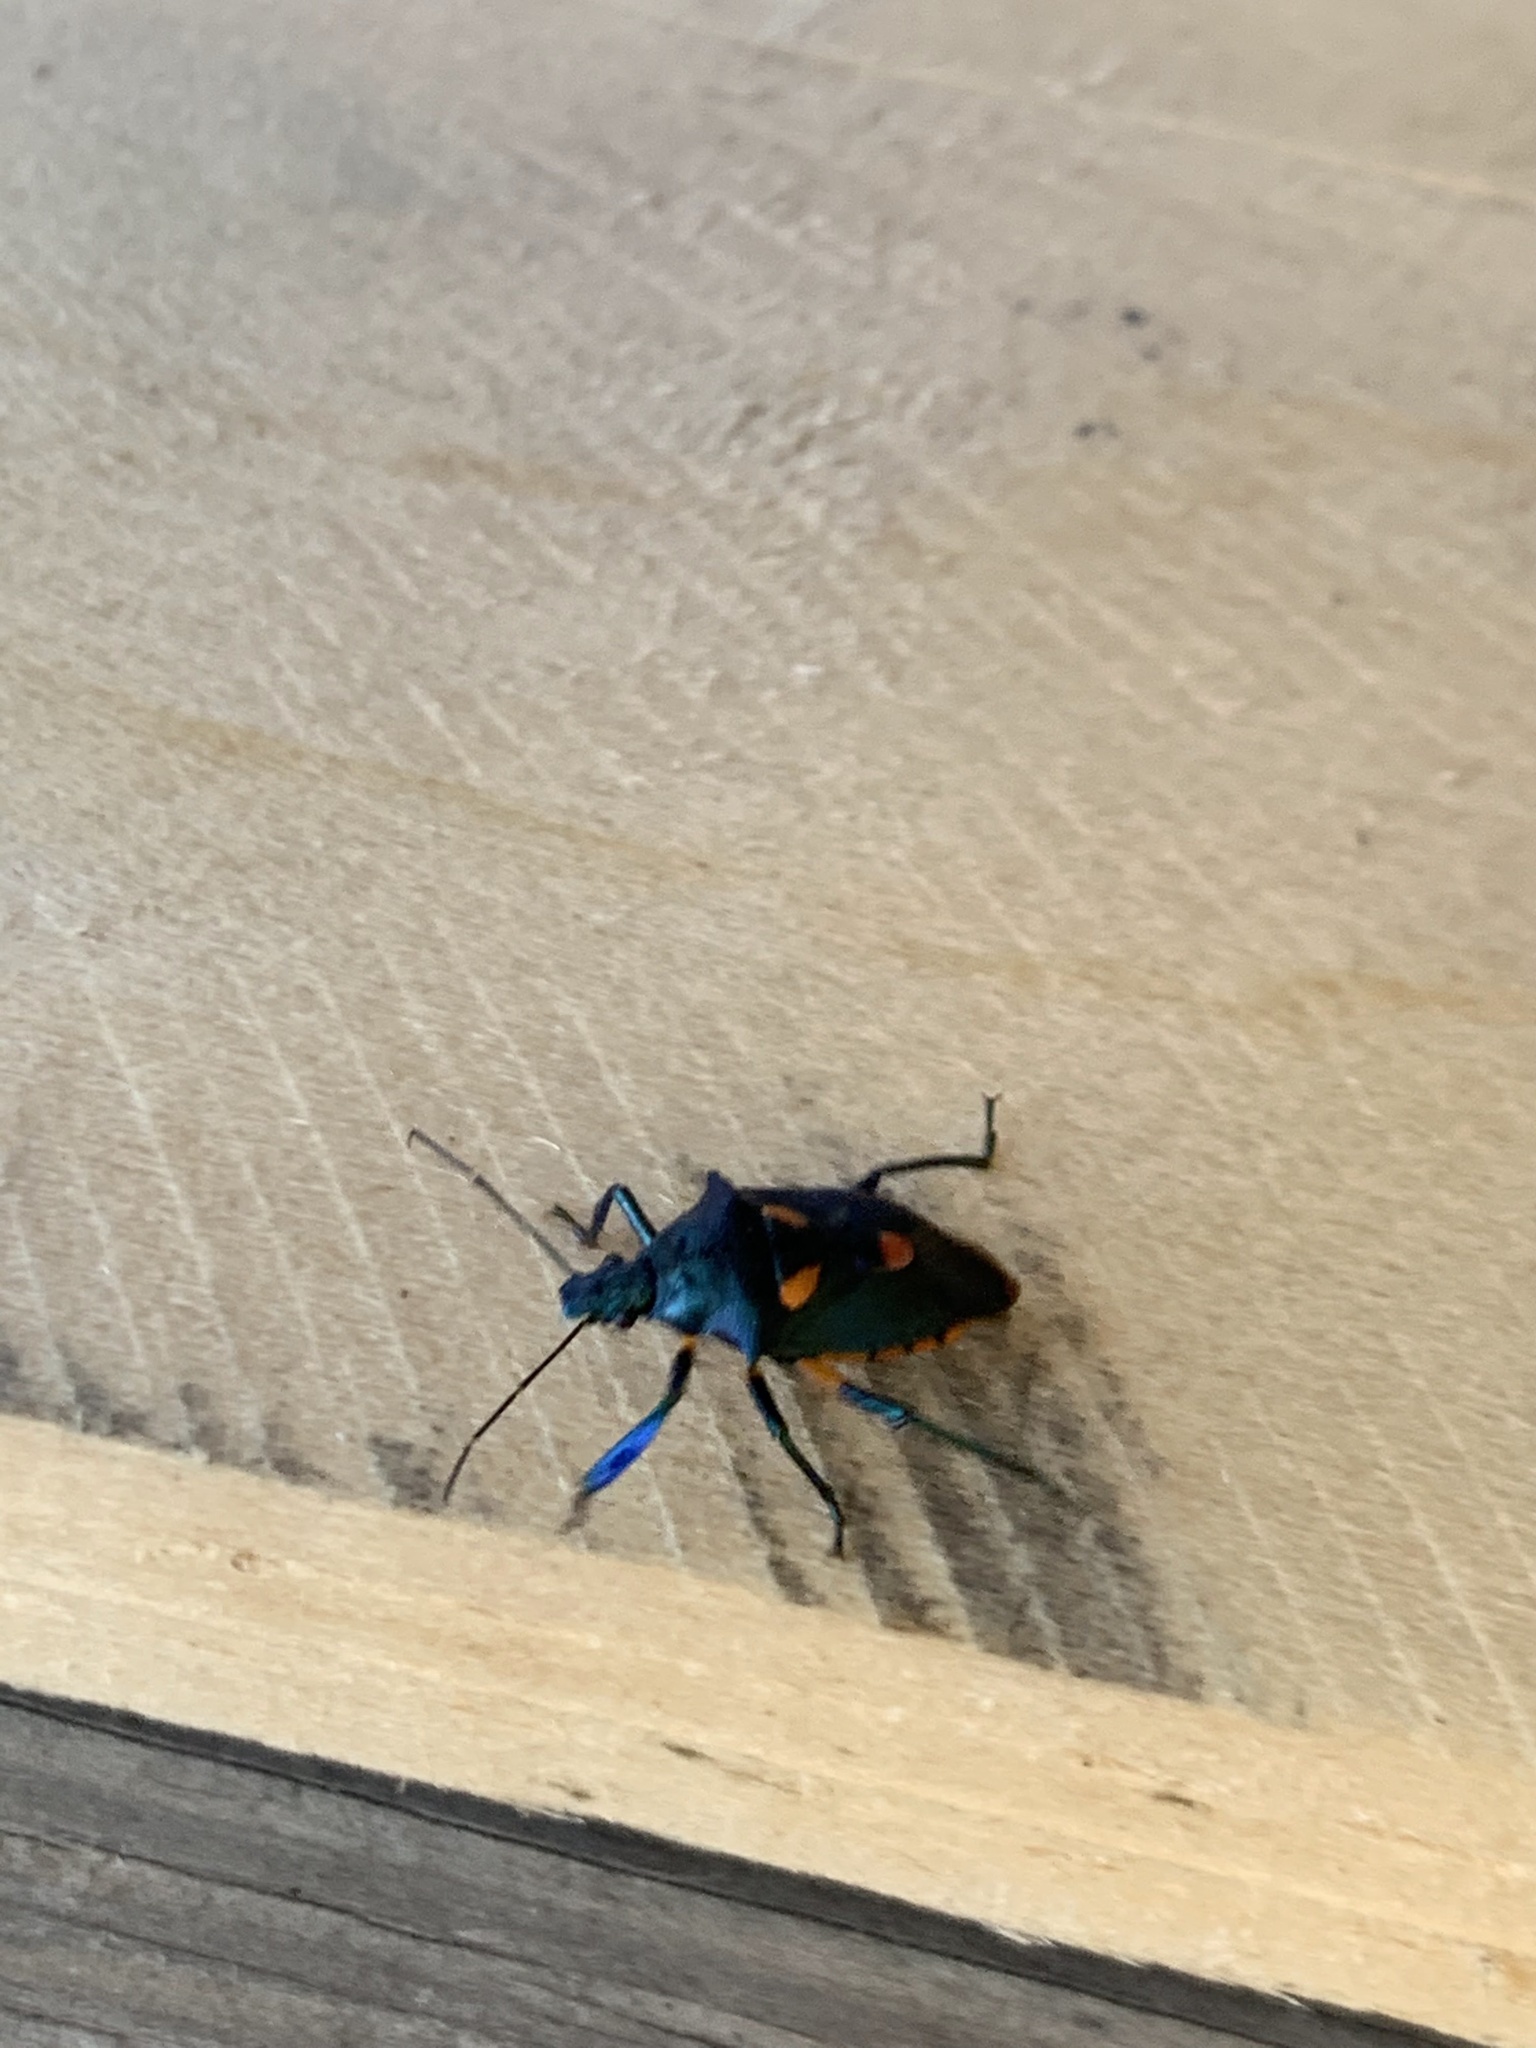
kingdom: Animalia
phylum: Arthropoda
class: Insecta
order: Hemiptera
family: Pentatomidae
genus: Euthyrhynchus
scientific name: Euthyrhynchus floridanus
